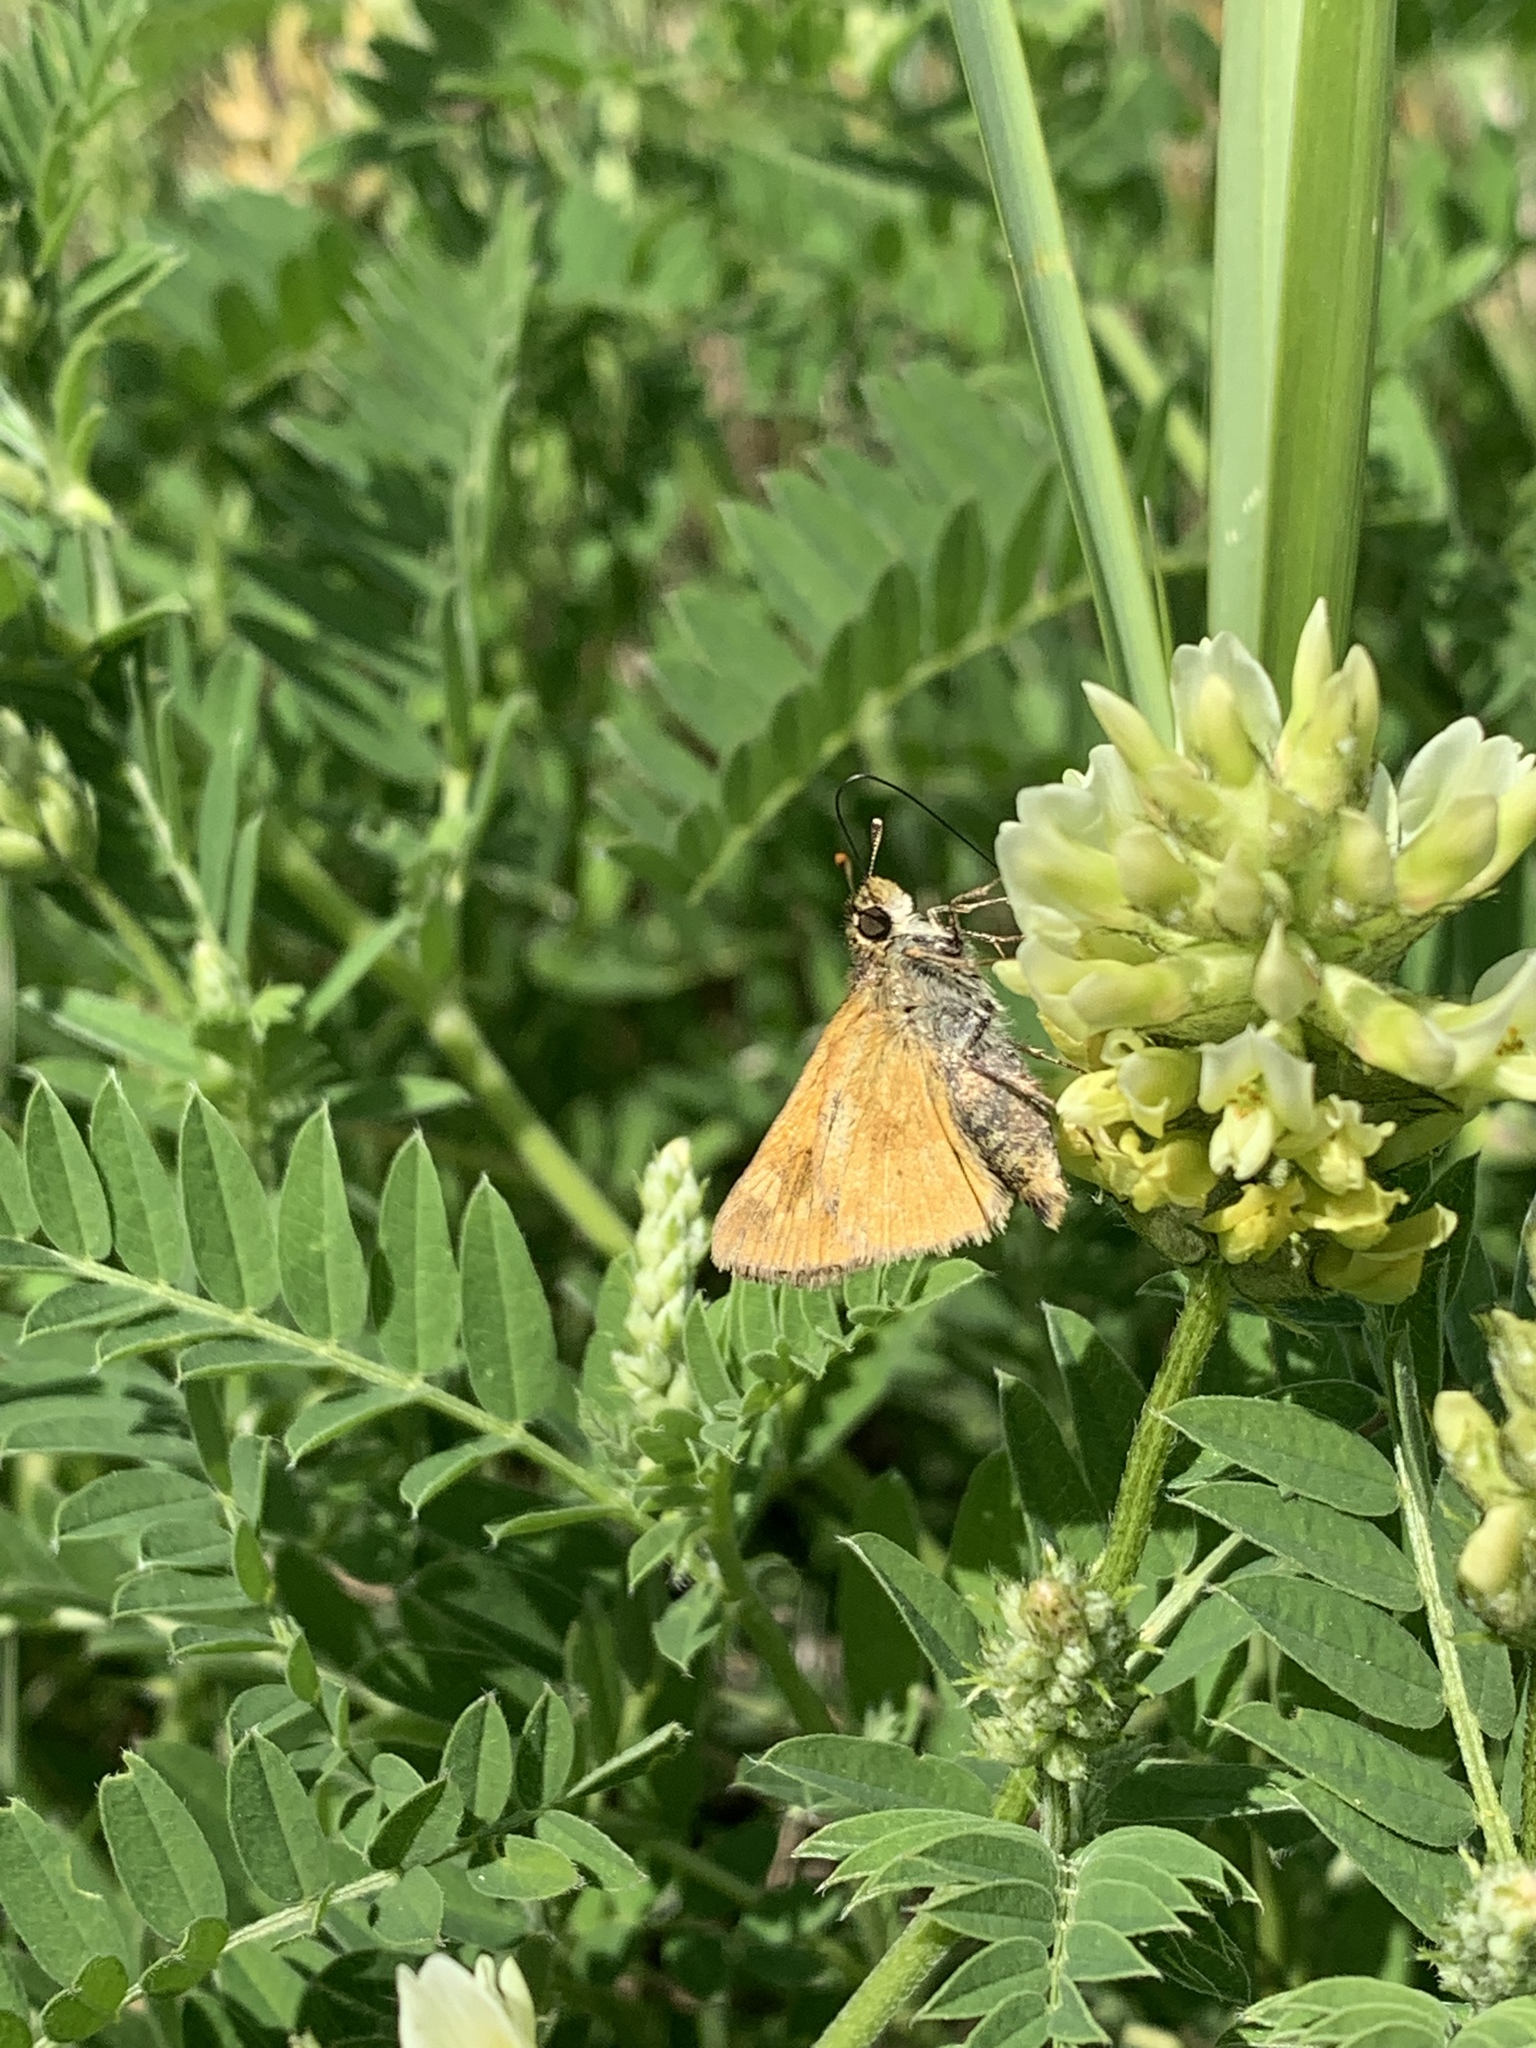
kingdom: Animalia
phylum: Arthropoda
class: Insecta
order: Lepidoptera
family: Hesperiidae
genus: Polites
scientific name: Polites mystic
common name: Long dash
